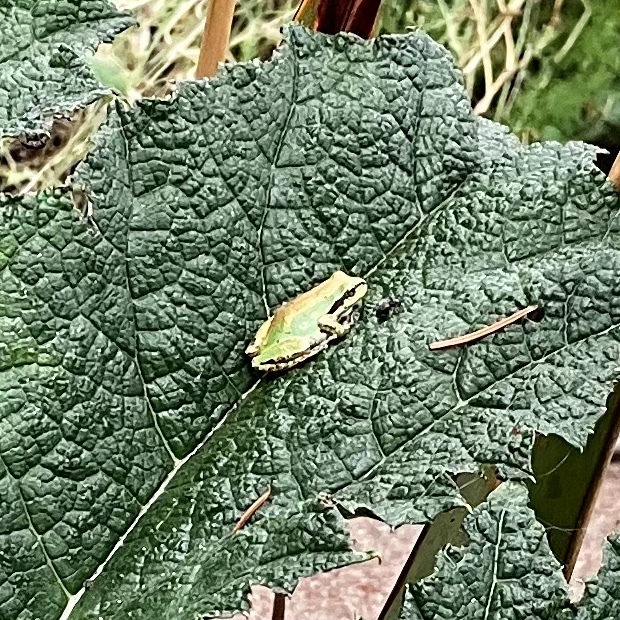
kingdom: Animalia
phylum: Chordata
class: Amphibia
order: Anura
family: Hylidae
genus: Pseudacris
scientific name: Pseudacris regilla
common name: Pacific chorus frog
